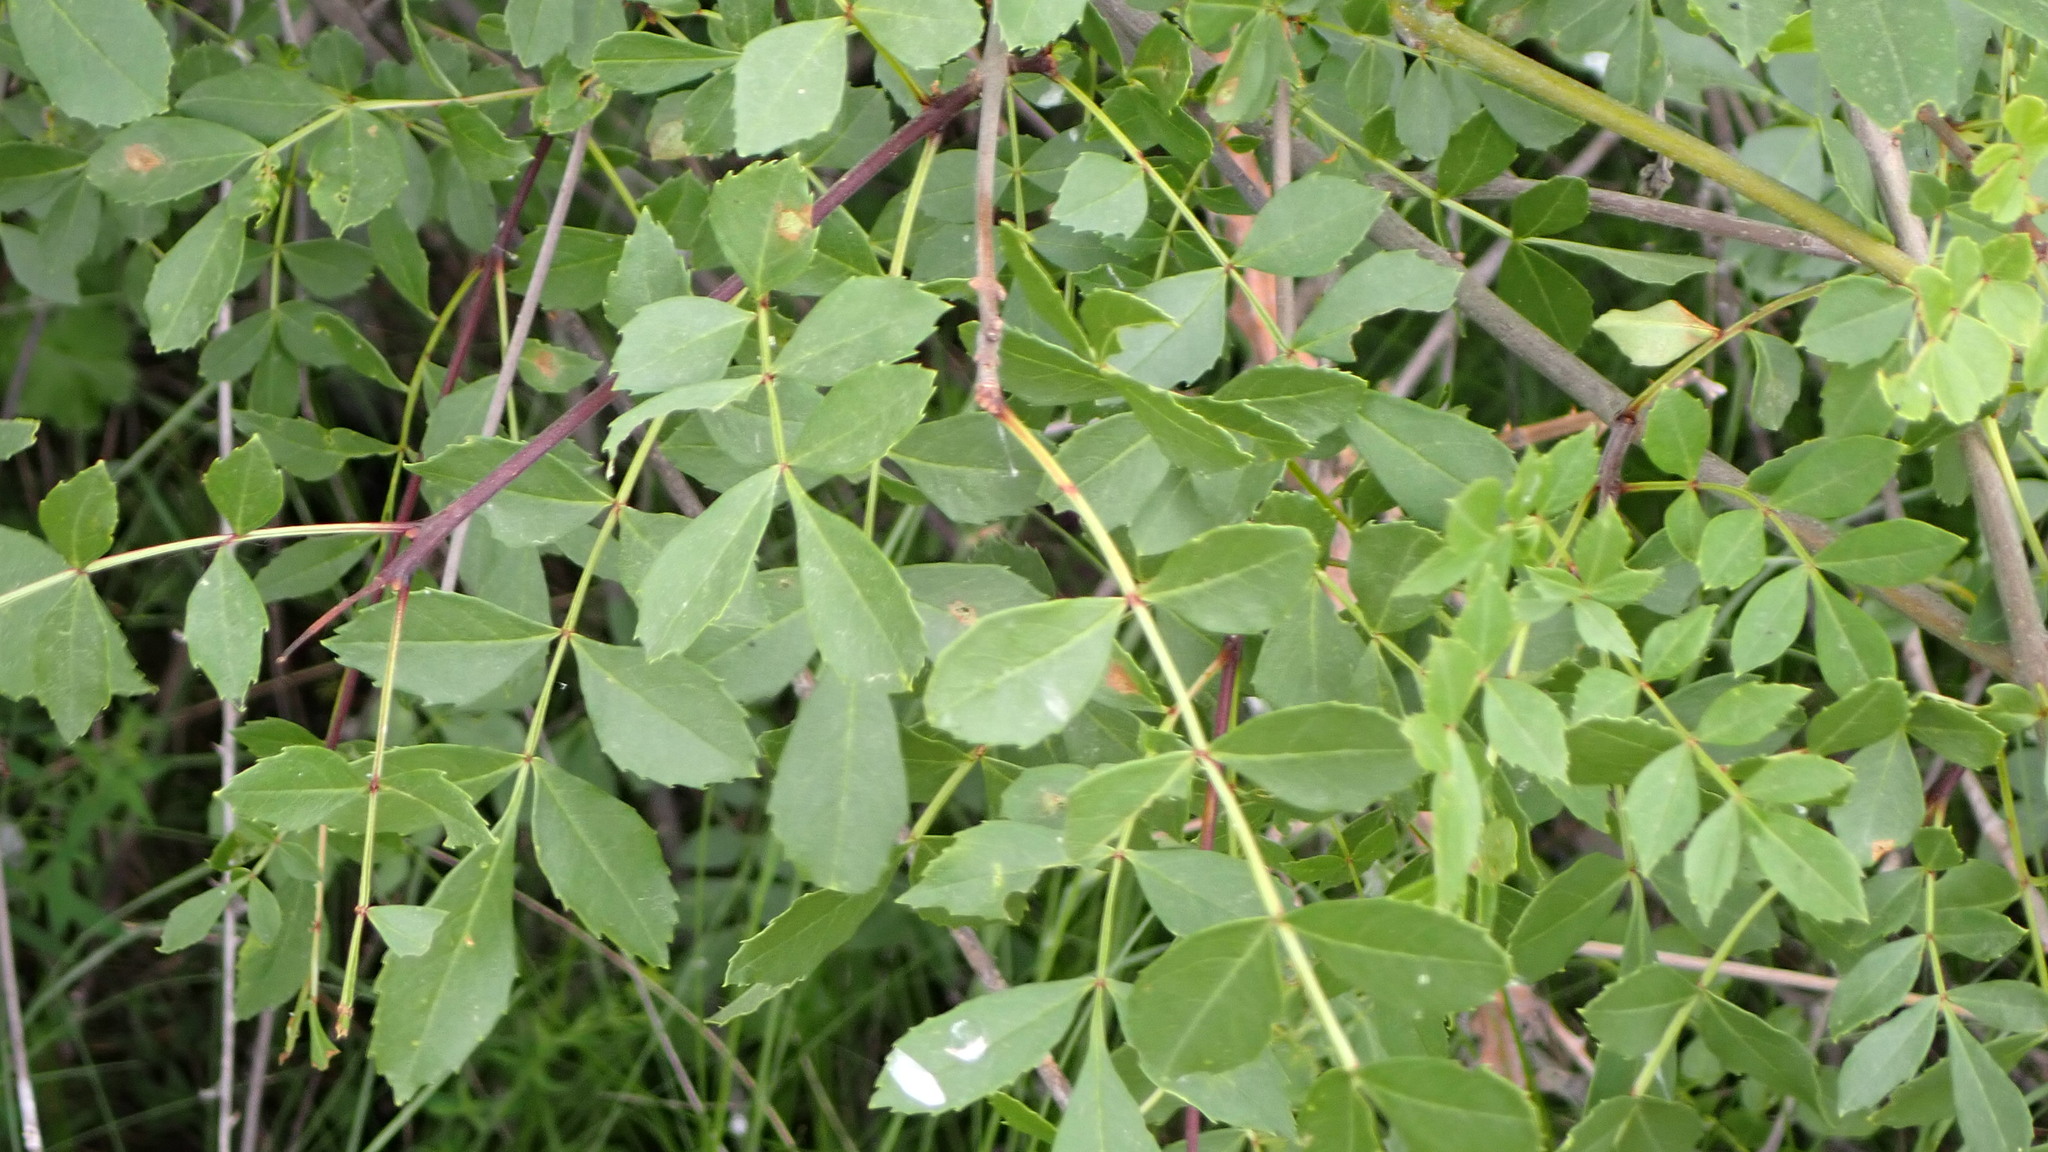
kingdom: Plantae
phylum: Tracheophyta
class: Magnoliopsida
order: Lamiales
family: Oleaceae
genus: Fraxinus
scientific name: Fraxinus angustifolia
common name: Narrow-leafed ash
